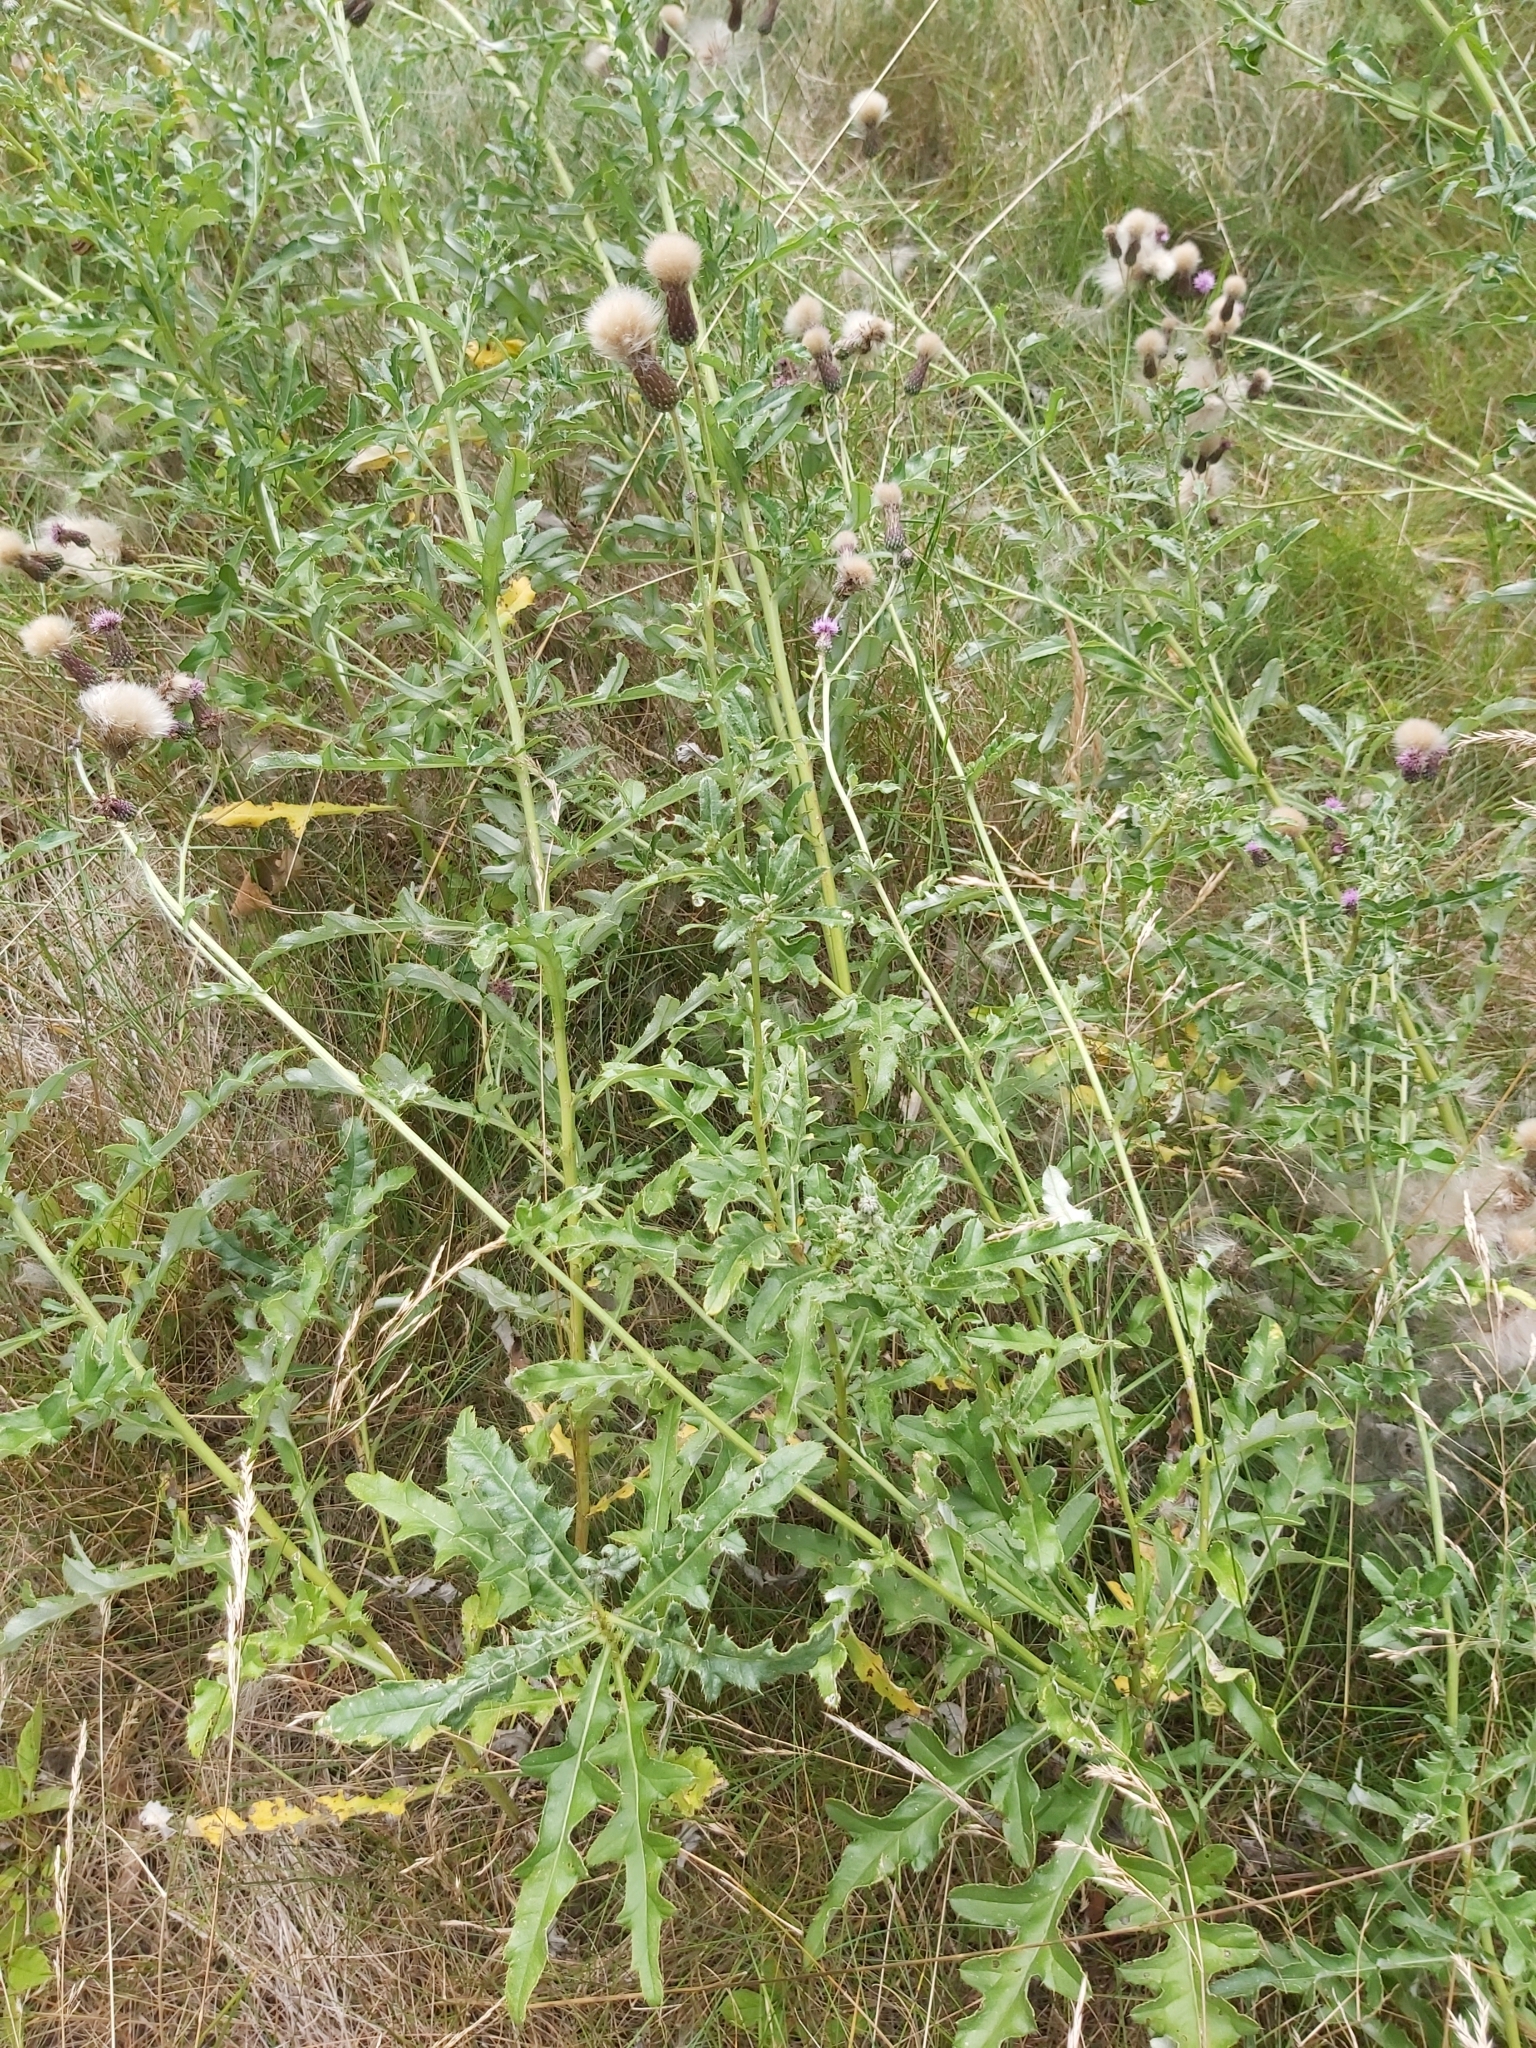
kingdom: Plantae
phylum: Tracheophyta
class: Magnoliopsida
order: Asterales
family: Asteraceae
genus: Cirsium
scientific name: Cirsium arvense
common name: Creeping thistle
